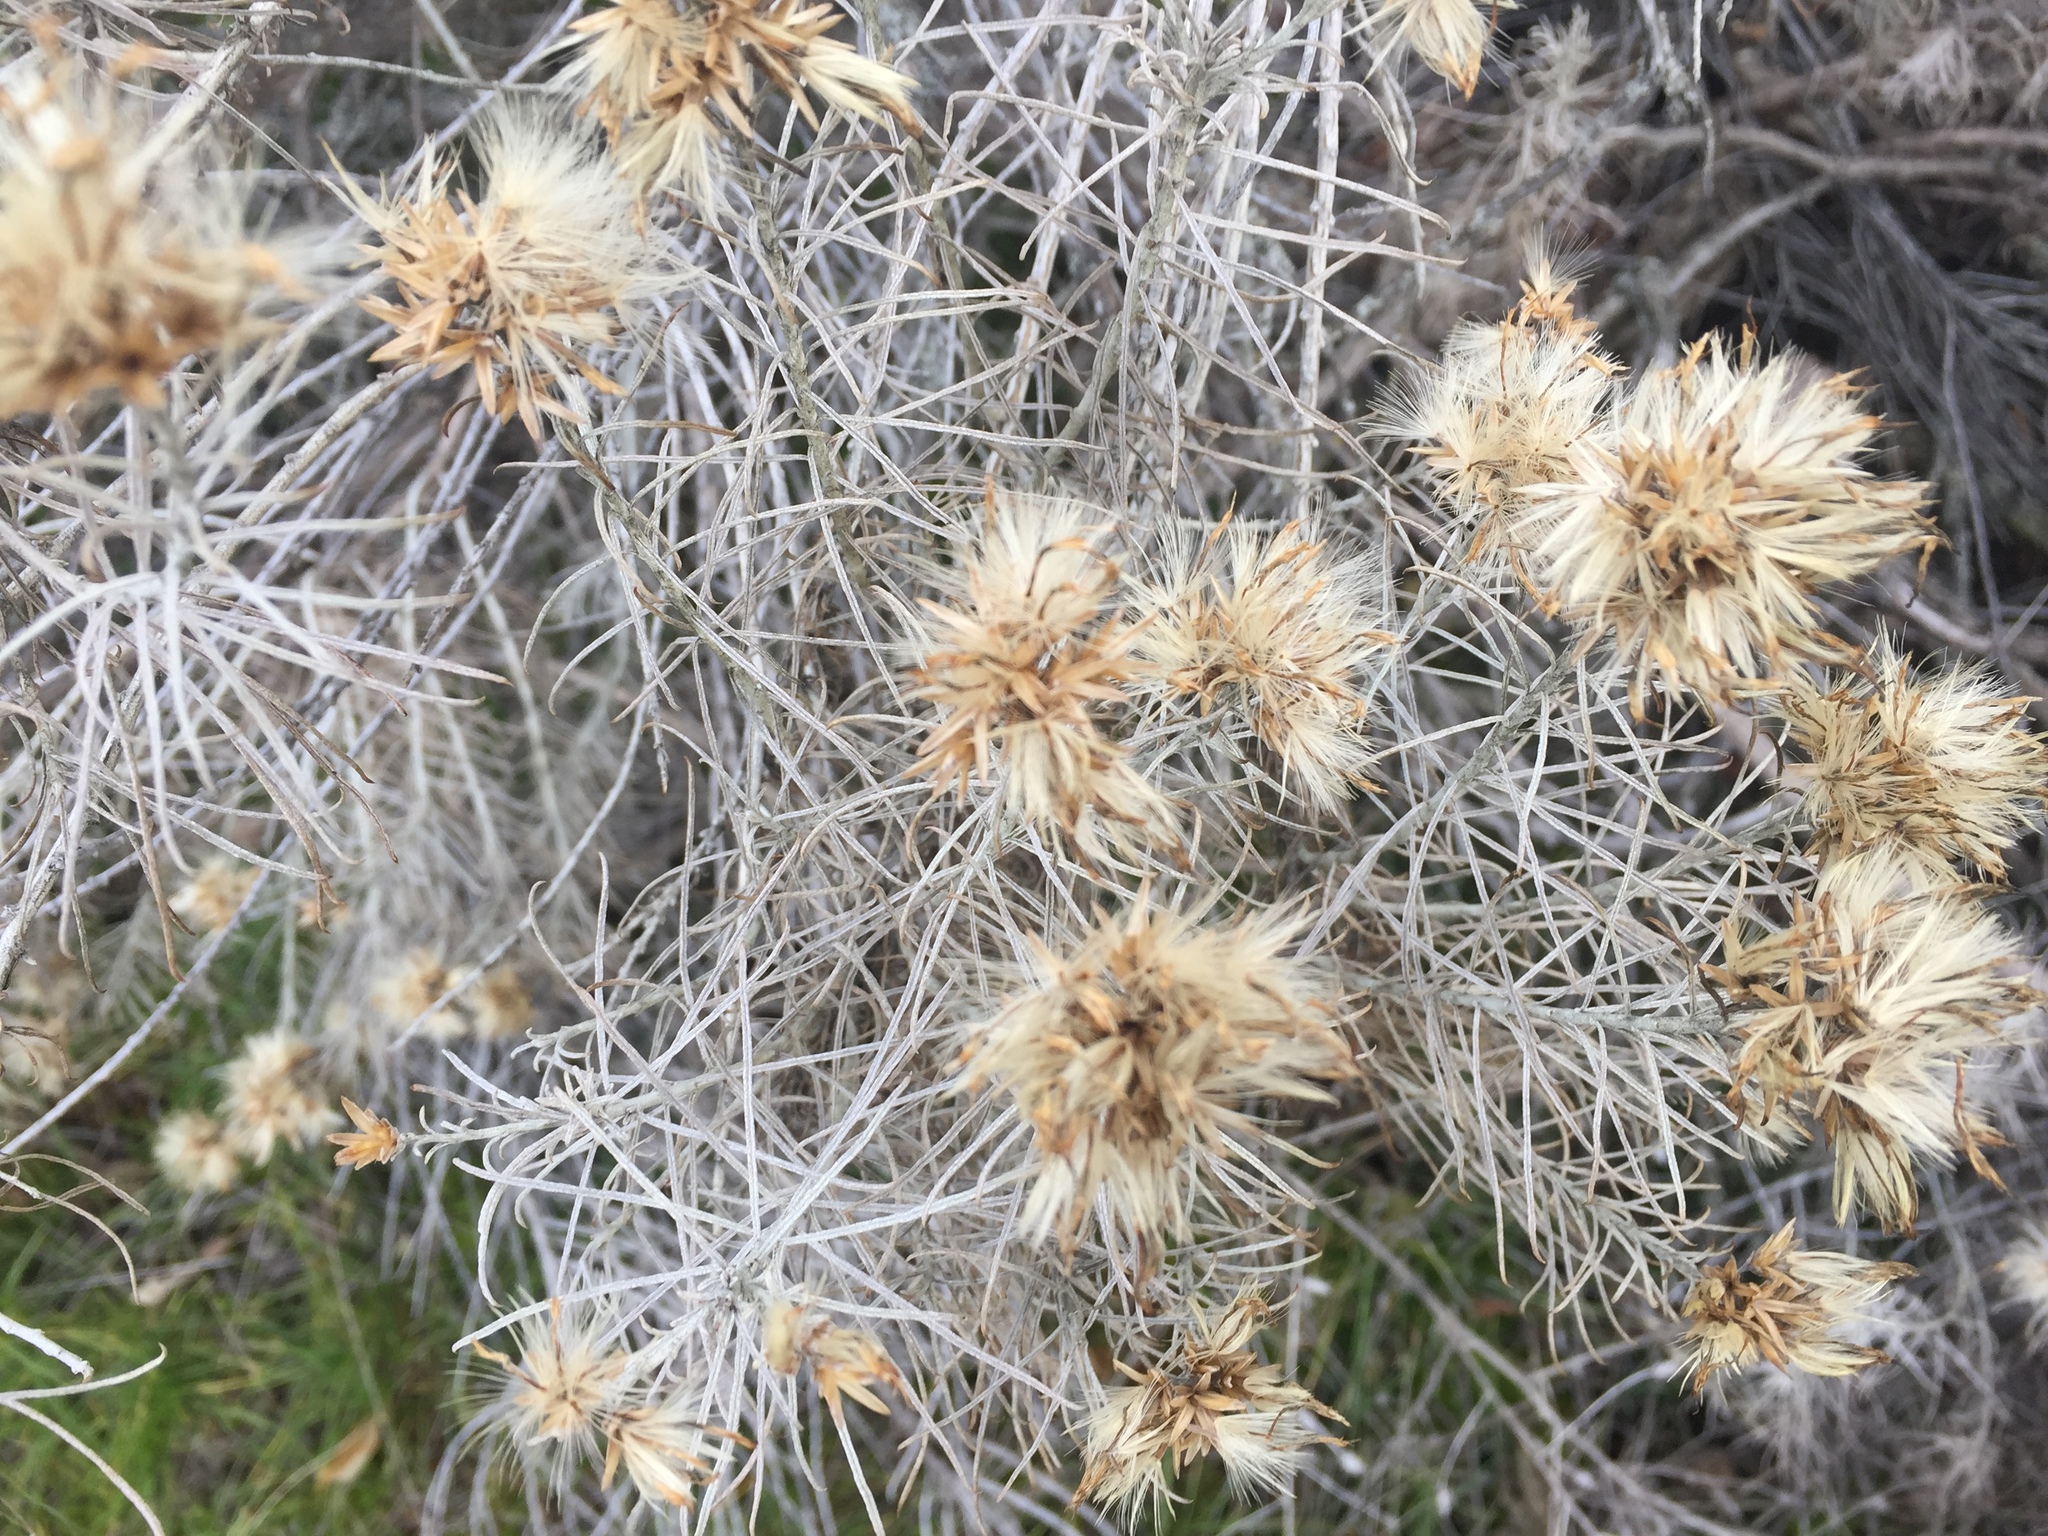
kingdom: Plantae
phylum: Tracheophyta
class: Magnoliopsida
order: Asterales
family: Asteraceae
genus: Ericameria
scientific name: Ericameria nauseosa
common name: Rubber rabbitbrush
